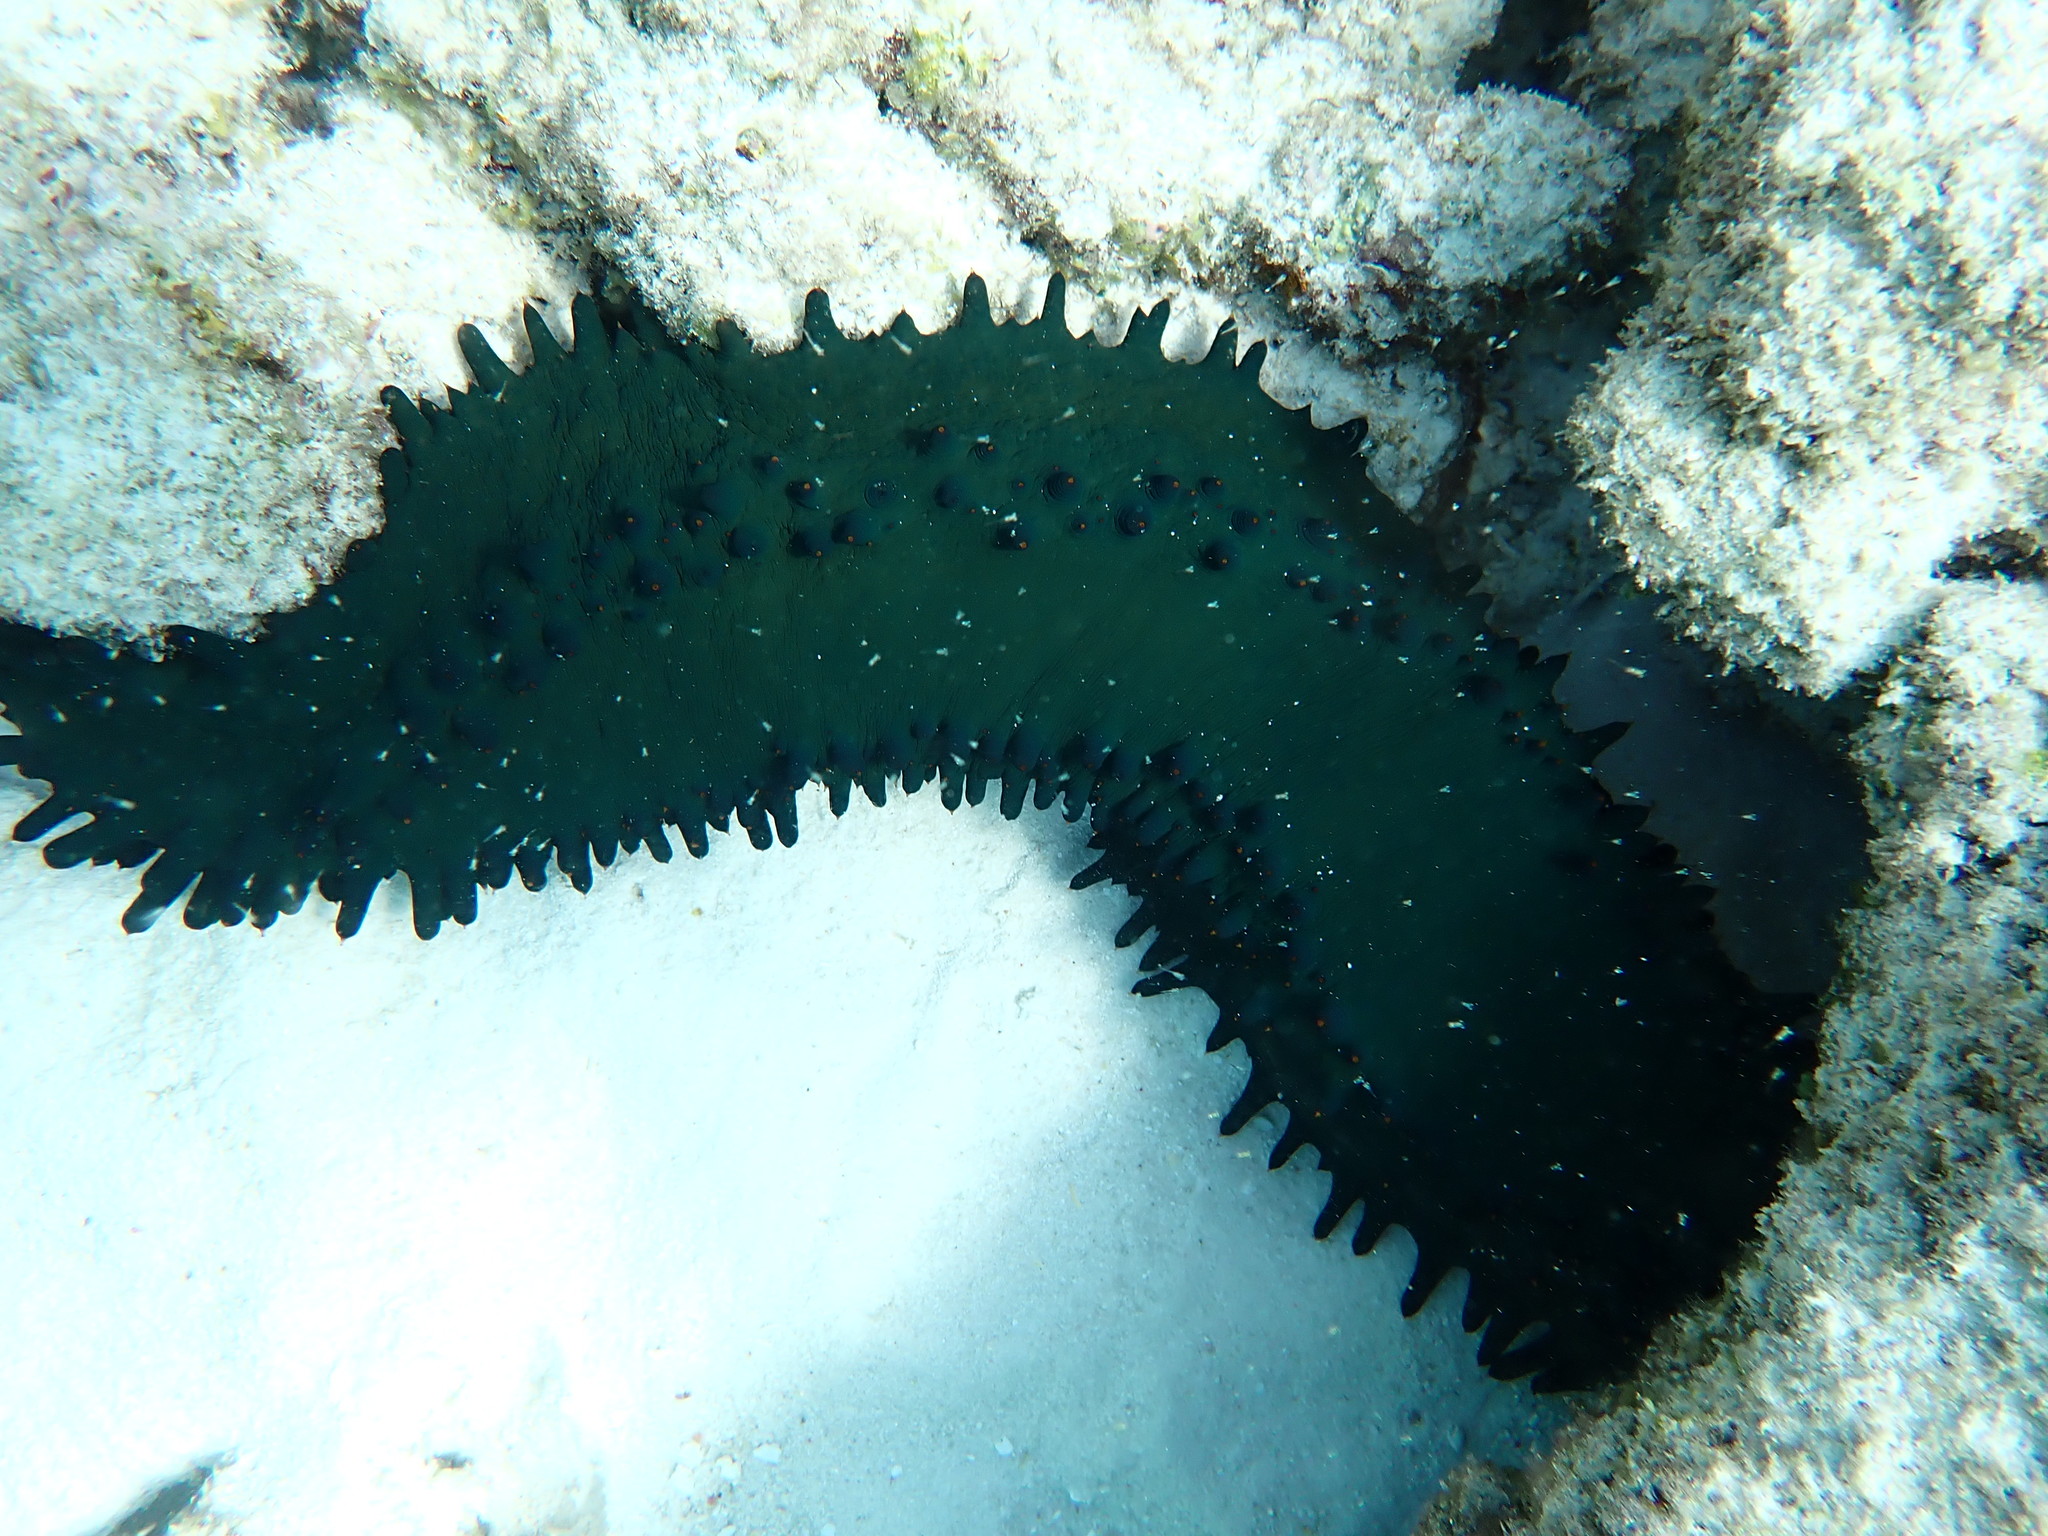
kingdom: Animalia
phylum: Echinodermata
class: Holothuroidea
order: Synallactida
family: Stichopodidae
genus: Stichopus
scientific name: Stichopus chloronotus
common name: Greenfish
